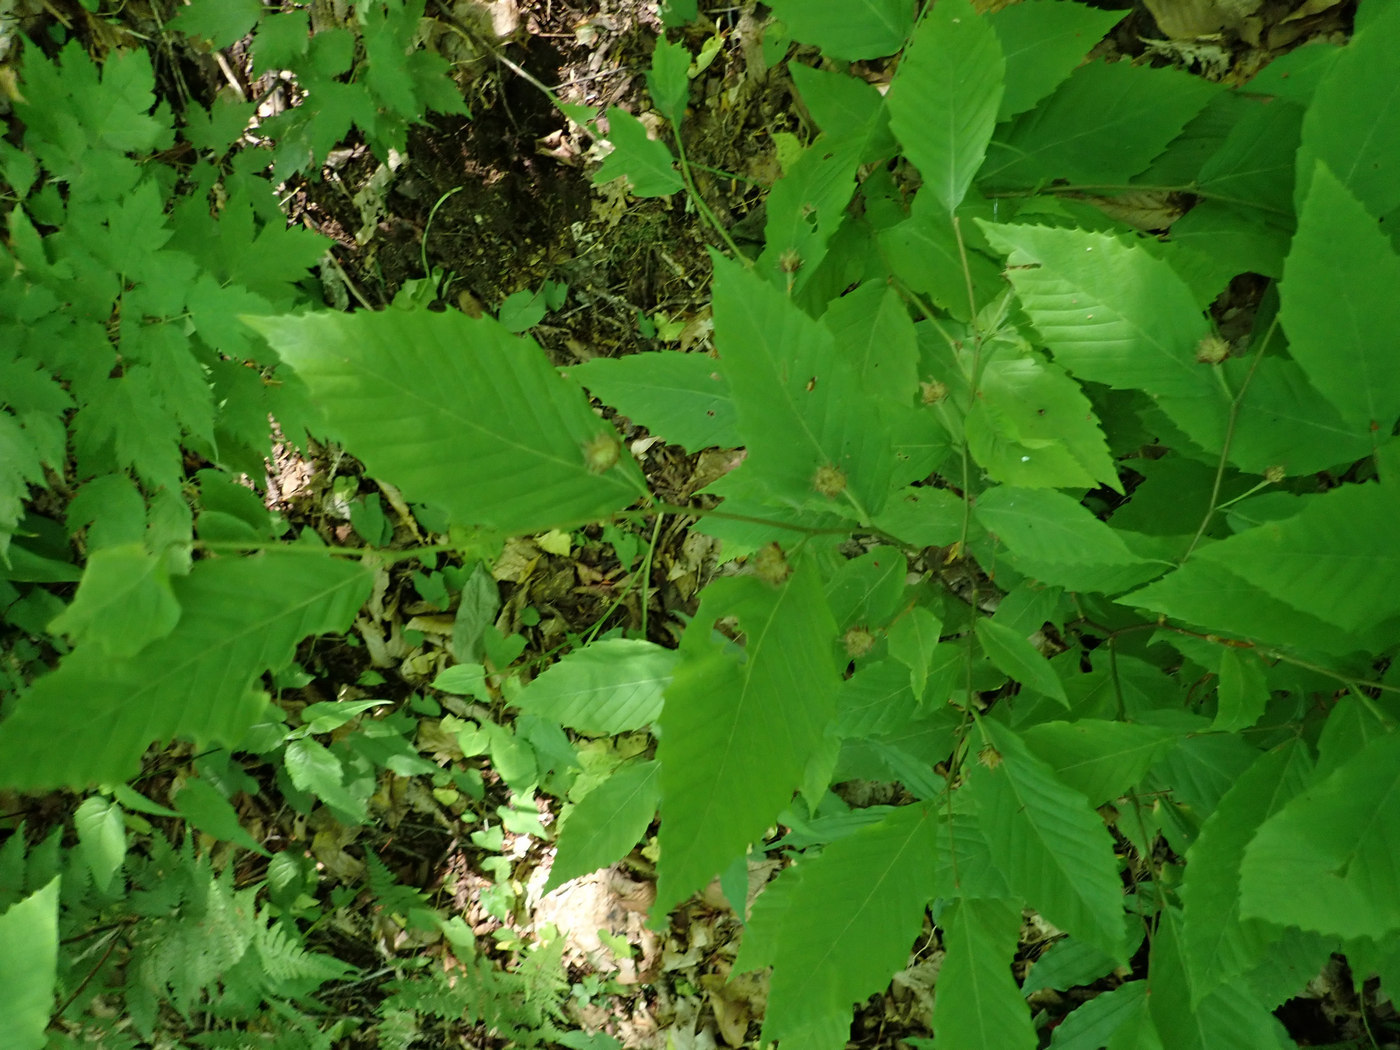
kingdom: Plantae
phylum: Tracheophyta
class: Magnoliopsida
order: Fagales
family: Fagaceae
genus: Fagus
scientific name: Fagus grandifolia
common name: American beech
